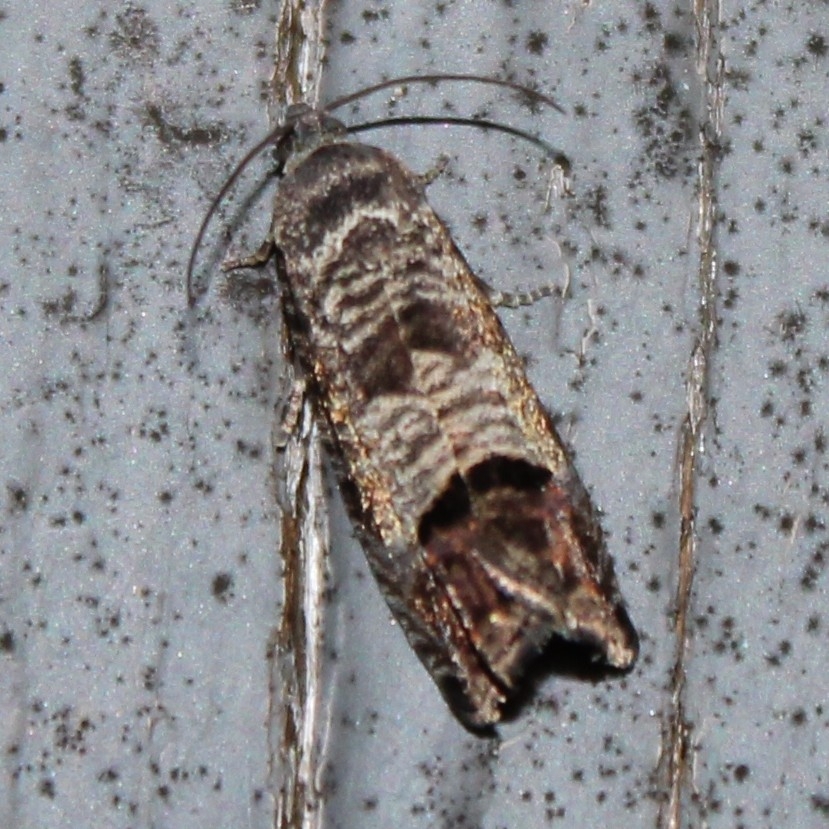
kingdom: Animalia
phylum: Arthropoda
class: Insecta
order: Lepidoptera
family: Tortricidae
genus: Cydia
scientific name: Cydia pomonella
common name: Codling moth
